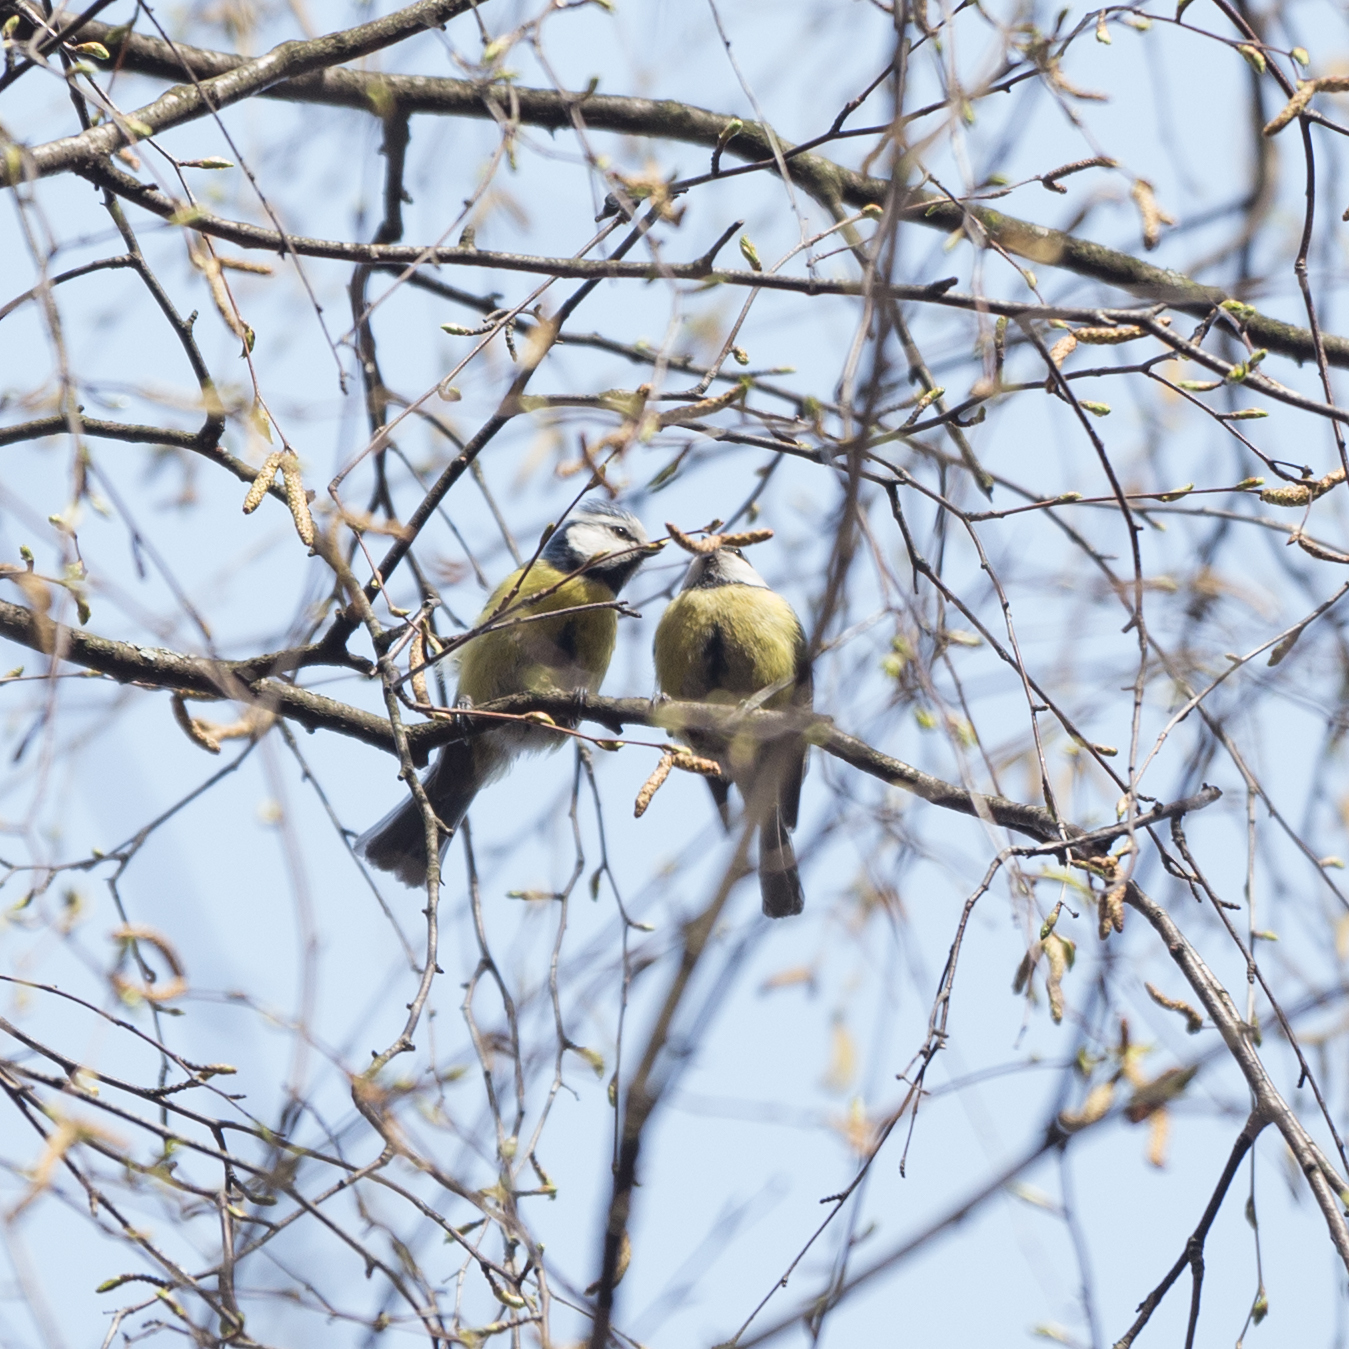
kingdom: Animalia
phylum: Chordata
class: Aves
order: Passeriformes
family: Paridae
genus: Cyanistes
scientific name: Cyanistes caeruleus
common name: Eurasian blue tit
